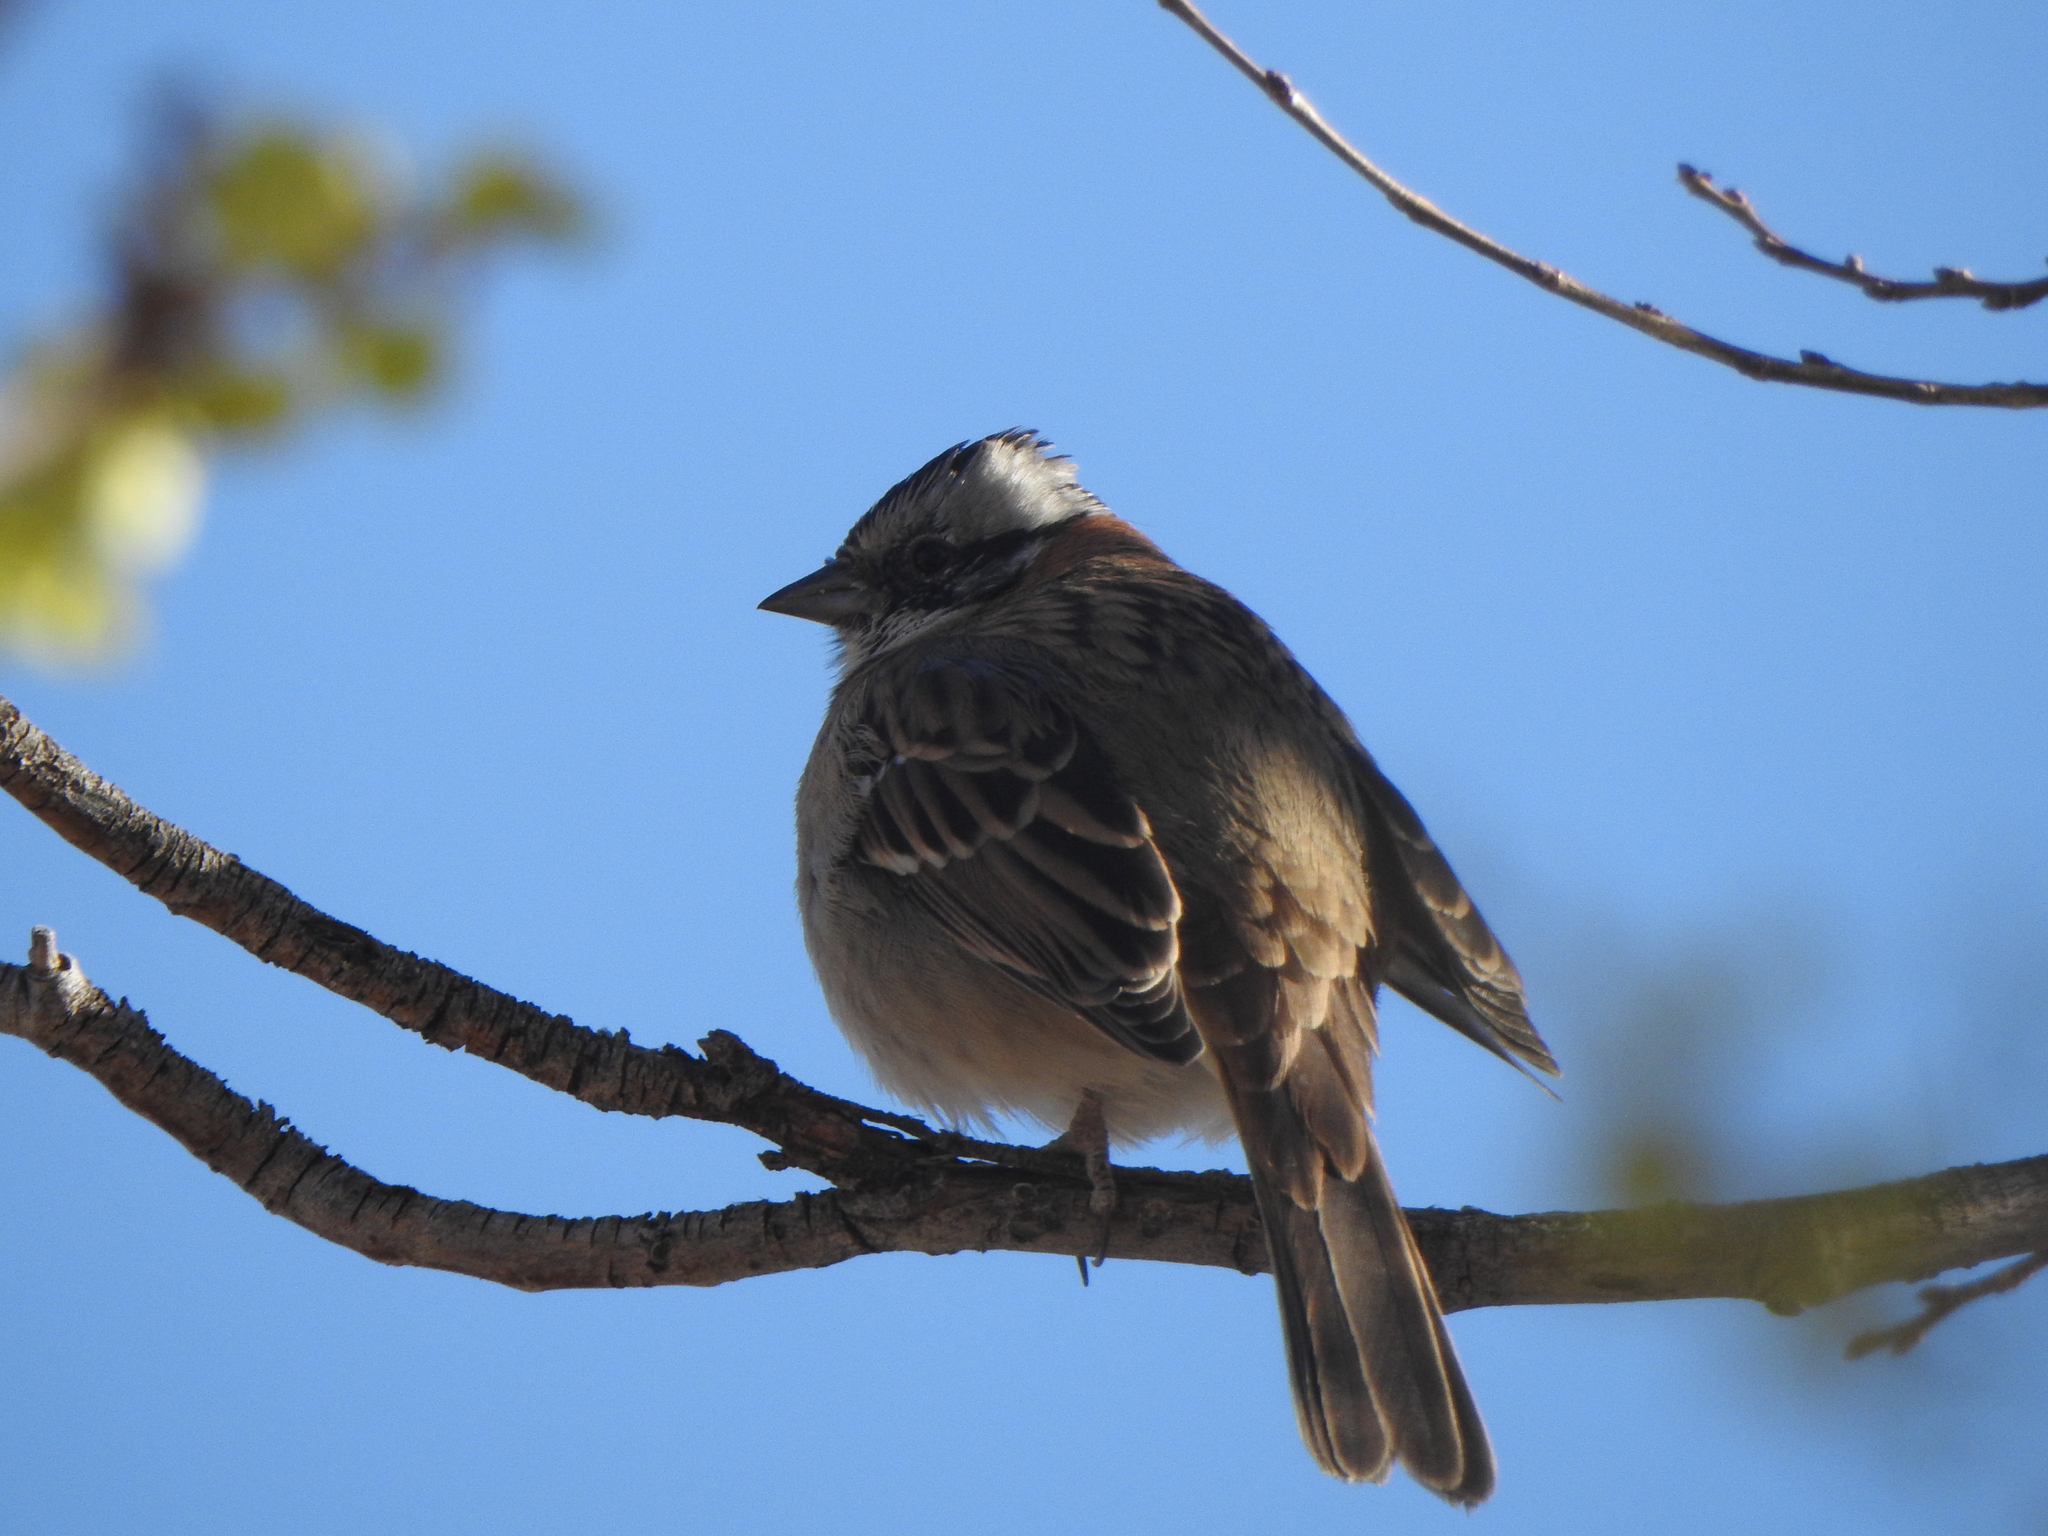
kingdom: Animalia
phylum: Chordata
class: Aves
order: Passeriformes
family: Passerellidae
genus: Zonotrichia
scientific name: Zonotrichia capensis
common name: Rufous-collared sparrow
